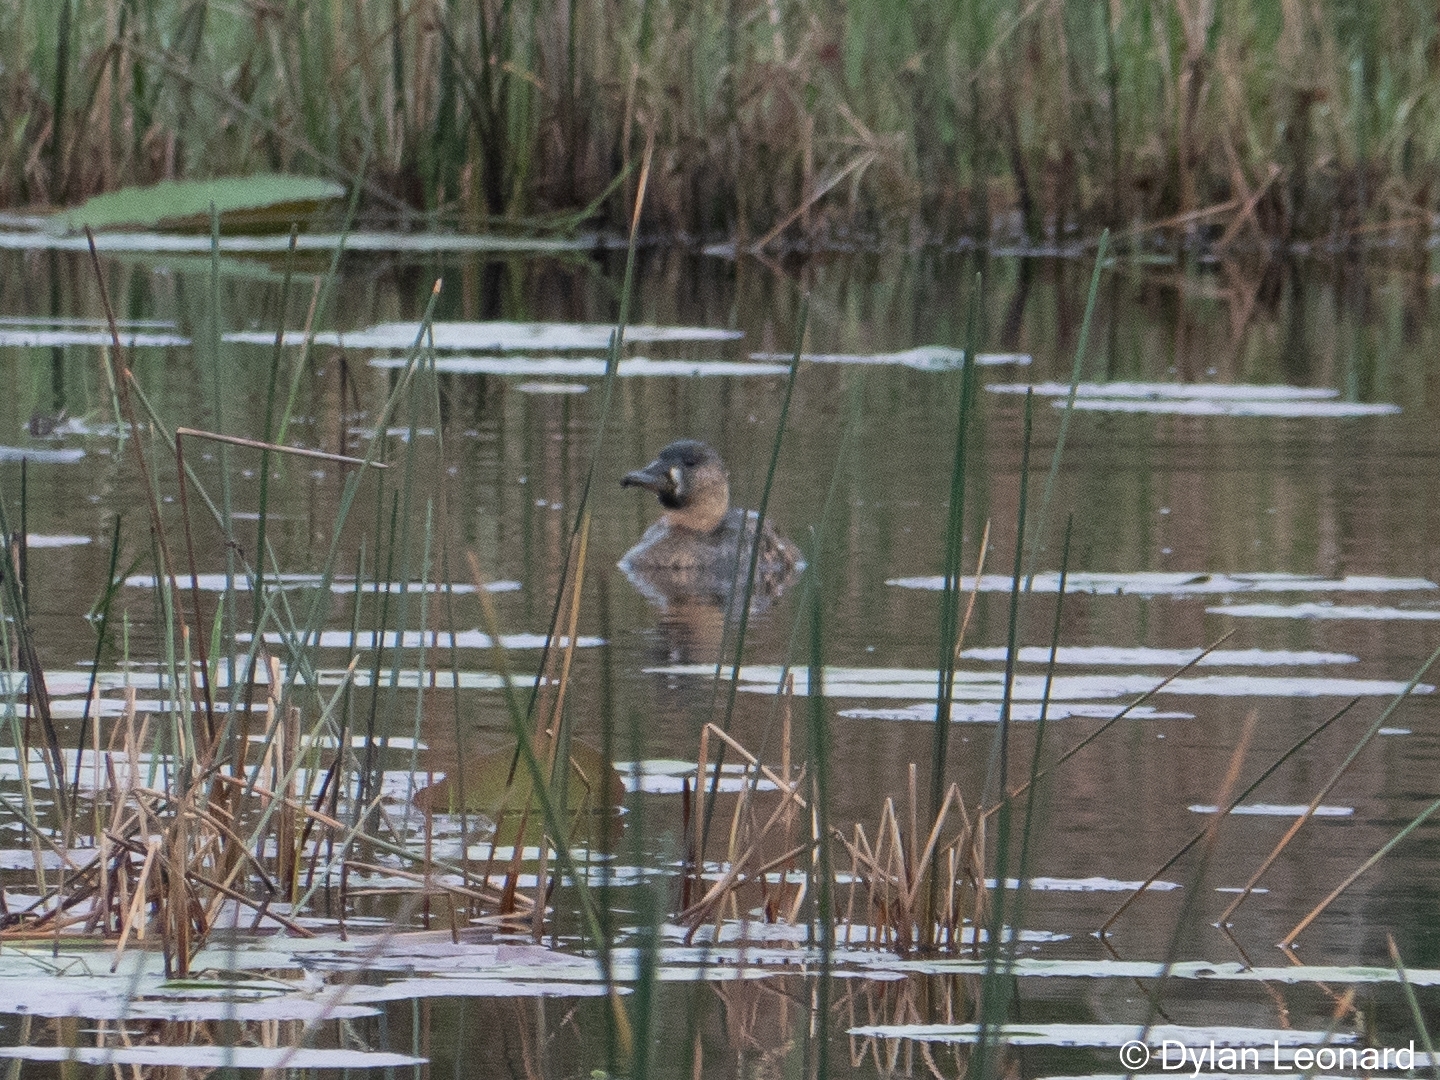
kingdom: Animalia
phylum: Chordata
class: Aves
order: Anseriformes
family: Anatidae
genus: Thalassornis
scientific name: Thalassornis leuconotus
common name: White-backed duck
